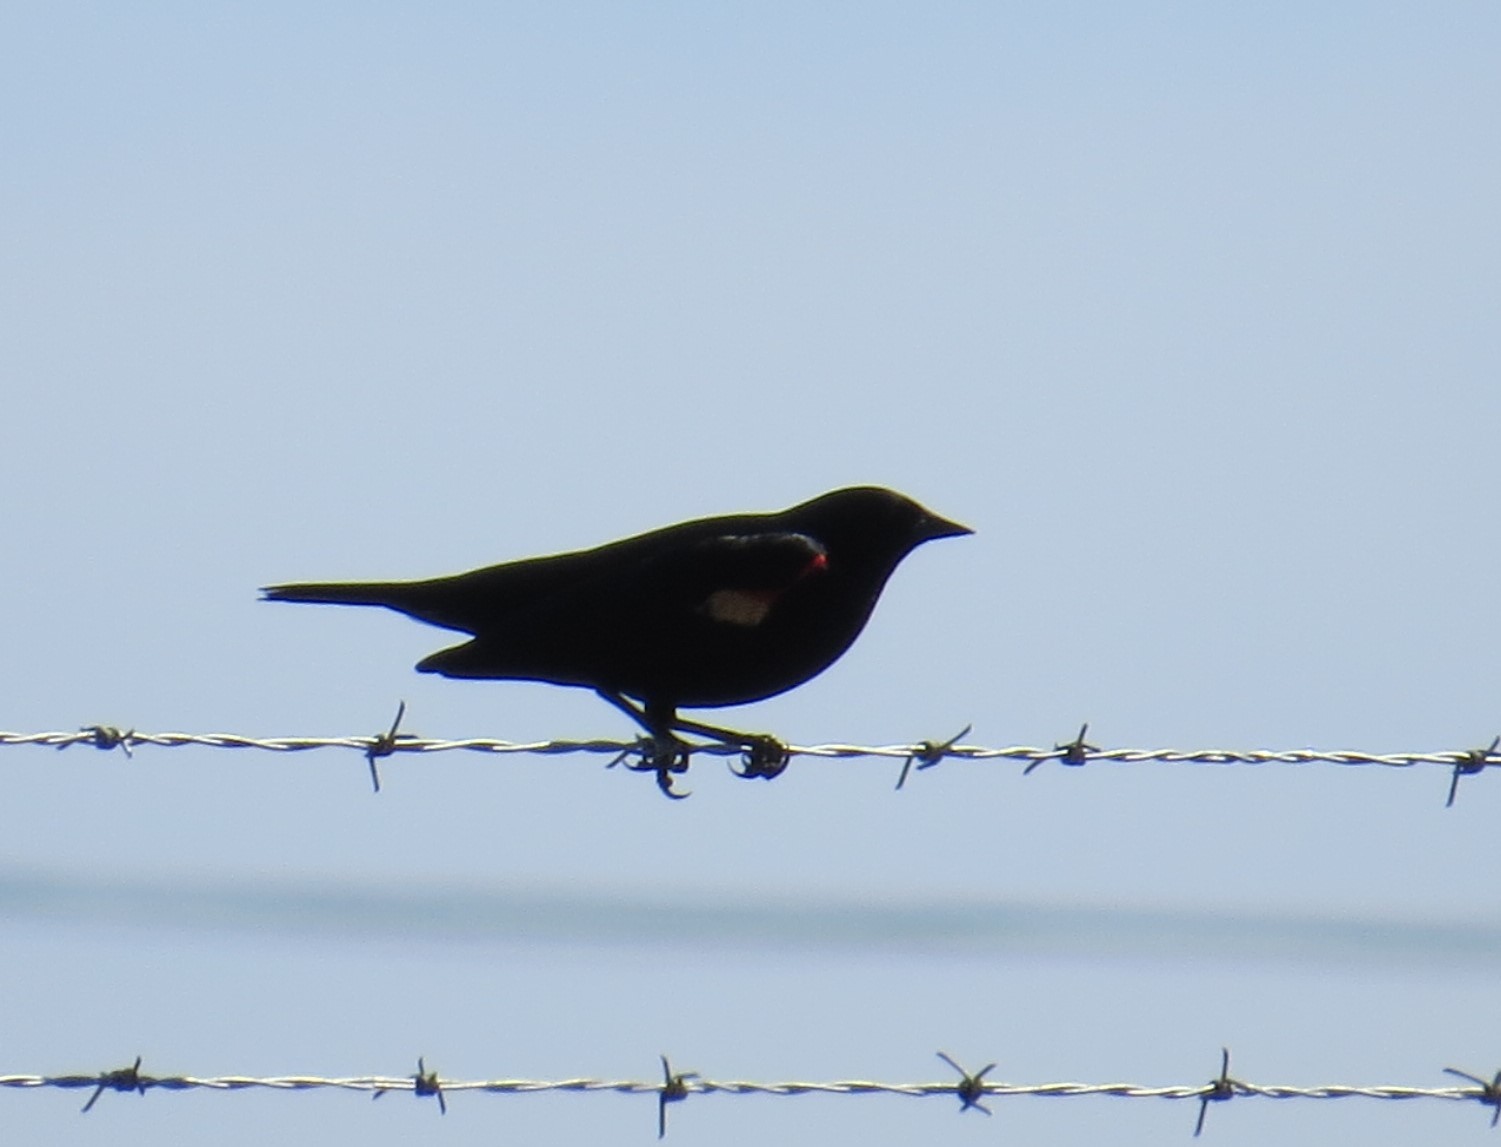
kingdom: Animalia
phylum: Chordata
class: Aves
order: Passeriformes
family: Icteridae
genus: Agelaius
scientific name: Agelaius phoeniceus
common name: Red-winged blackbird
